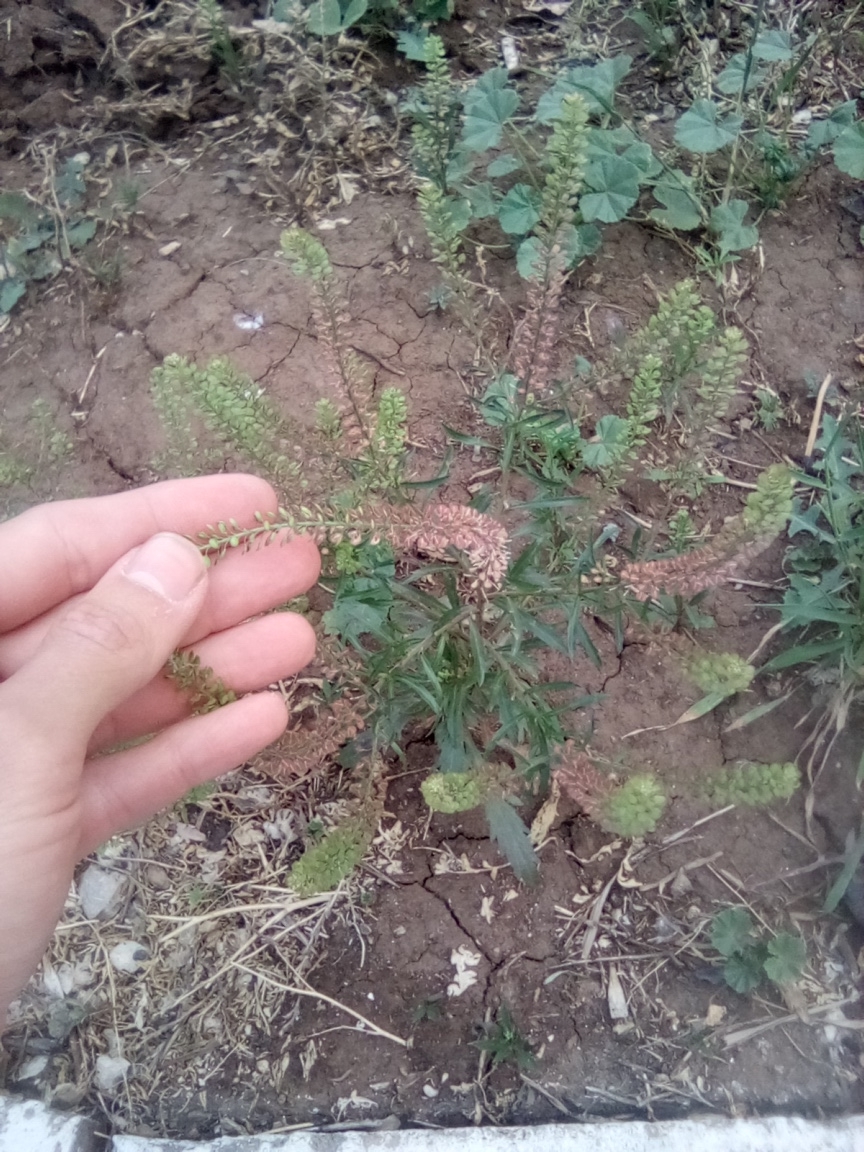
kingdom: Plantae
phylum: Tracheophyta
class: Magnoliopsida
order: Brassicales
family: Brassicaceae
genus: Lepidium
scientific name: Lepidium densiflorum
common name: Miner's pepperwort
